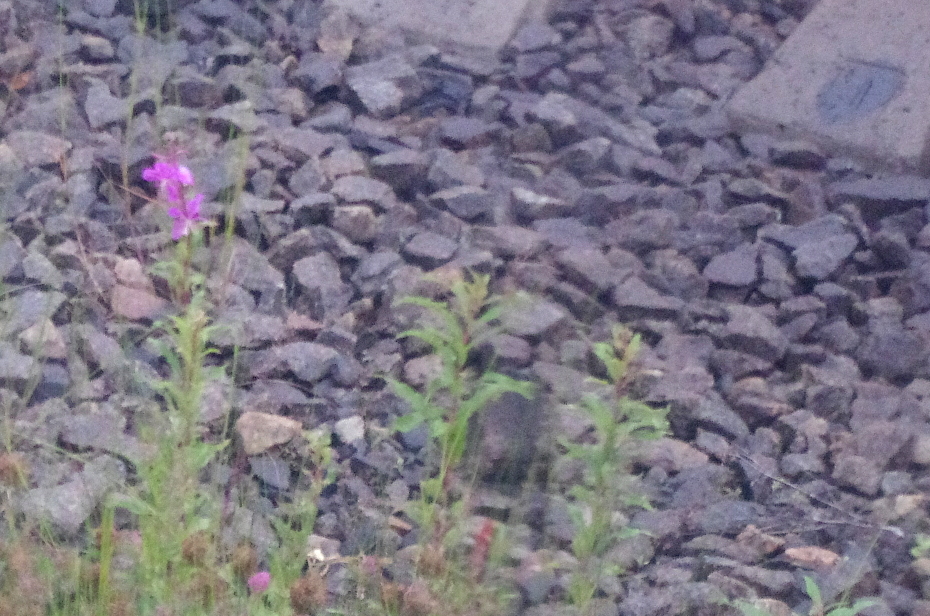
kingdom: Plantae
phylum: Tracheophyta
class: Magnoliopsida
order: Myrtales
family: Onagraceae
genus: Chamaenerion
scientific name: Chamaenerion angustifolium
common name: Fireweed
